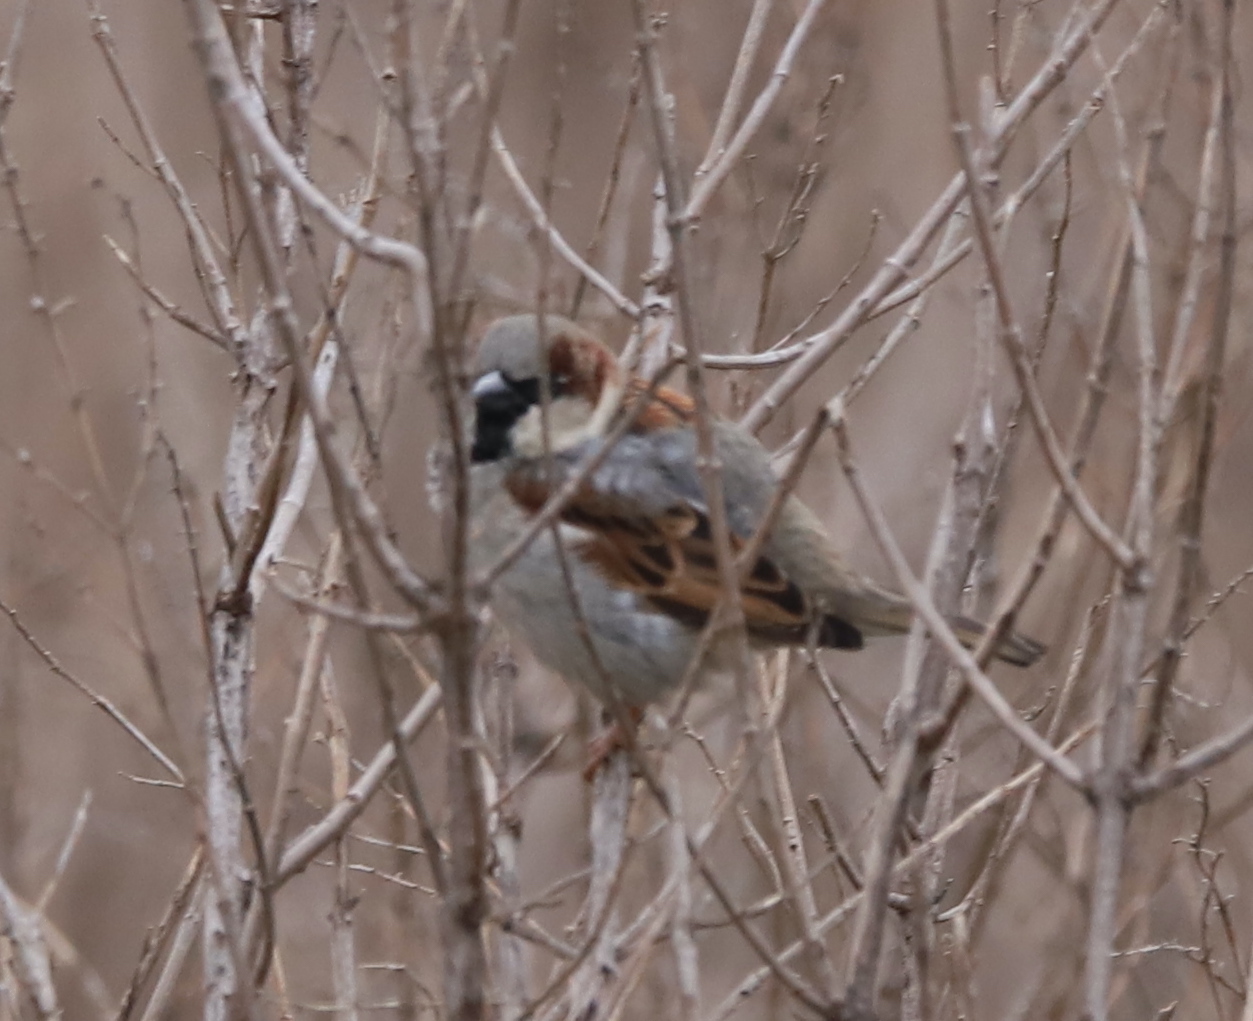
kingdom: Animalia
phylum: Chordata
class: Aves
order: Passeriformes
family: Passeridae
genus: Passer
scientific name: Passer domesticus
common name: House sparrow
